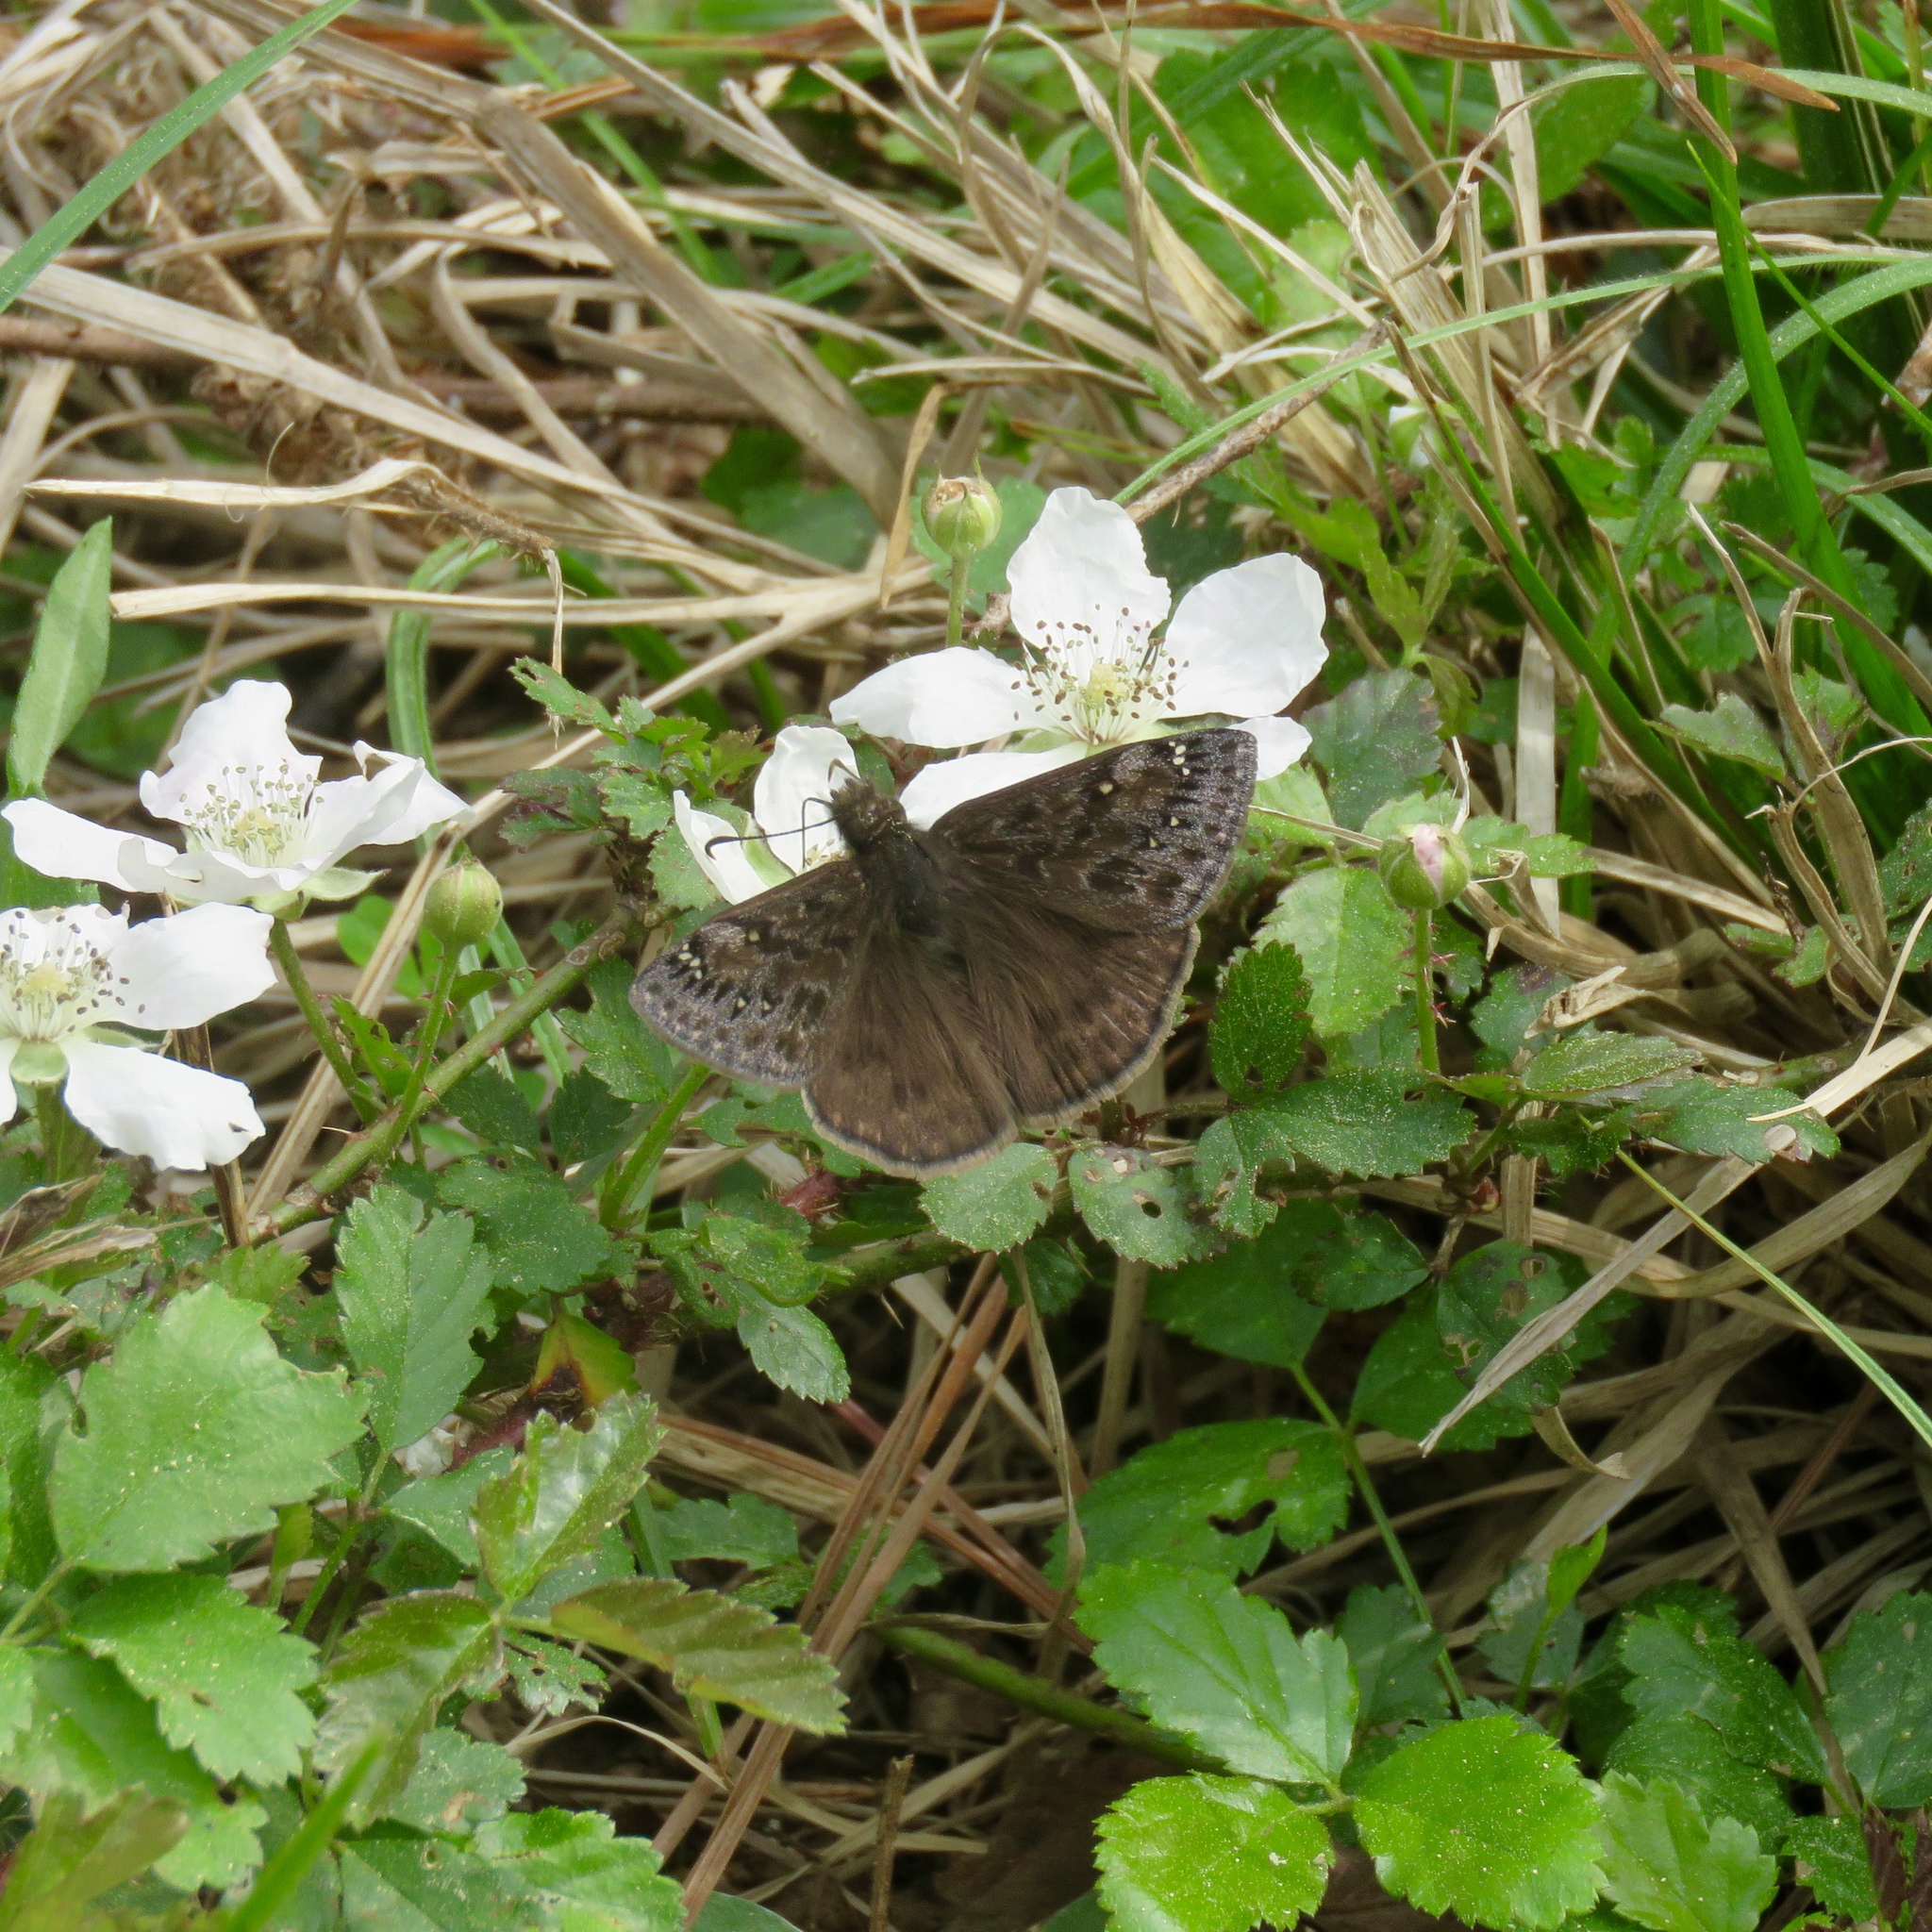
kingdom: Animalia
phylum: Arthropoda
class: Insecta
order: Lepidoptera
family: Hesperiidae
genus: Erynnis
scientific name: Erynnis juvenalis
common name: Juvenal's duskywing
